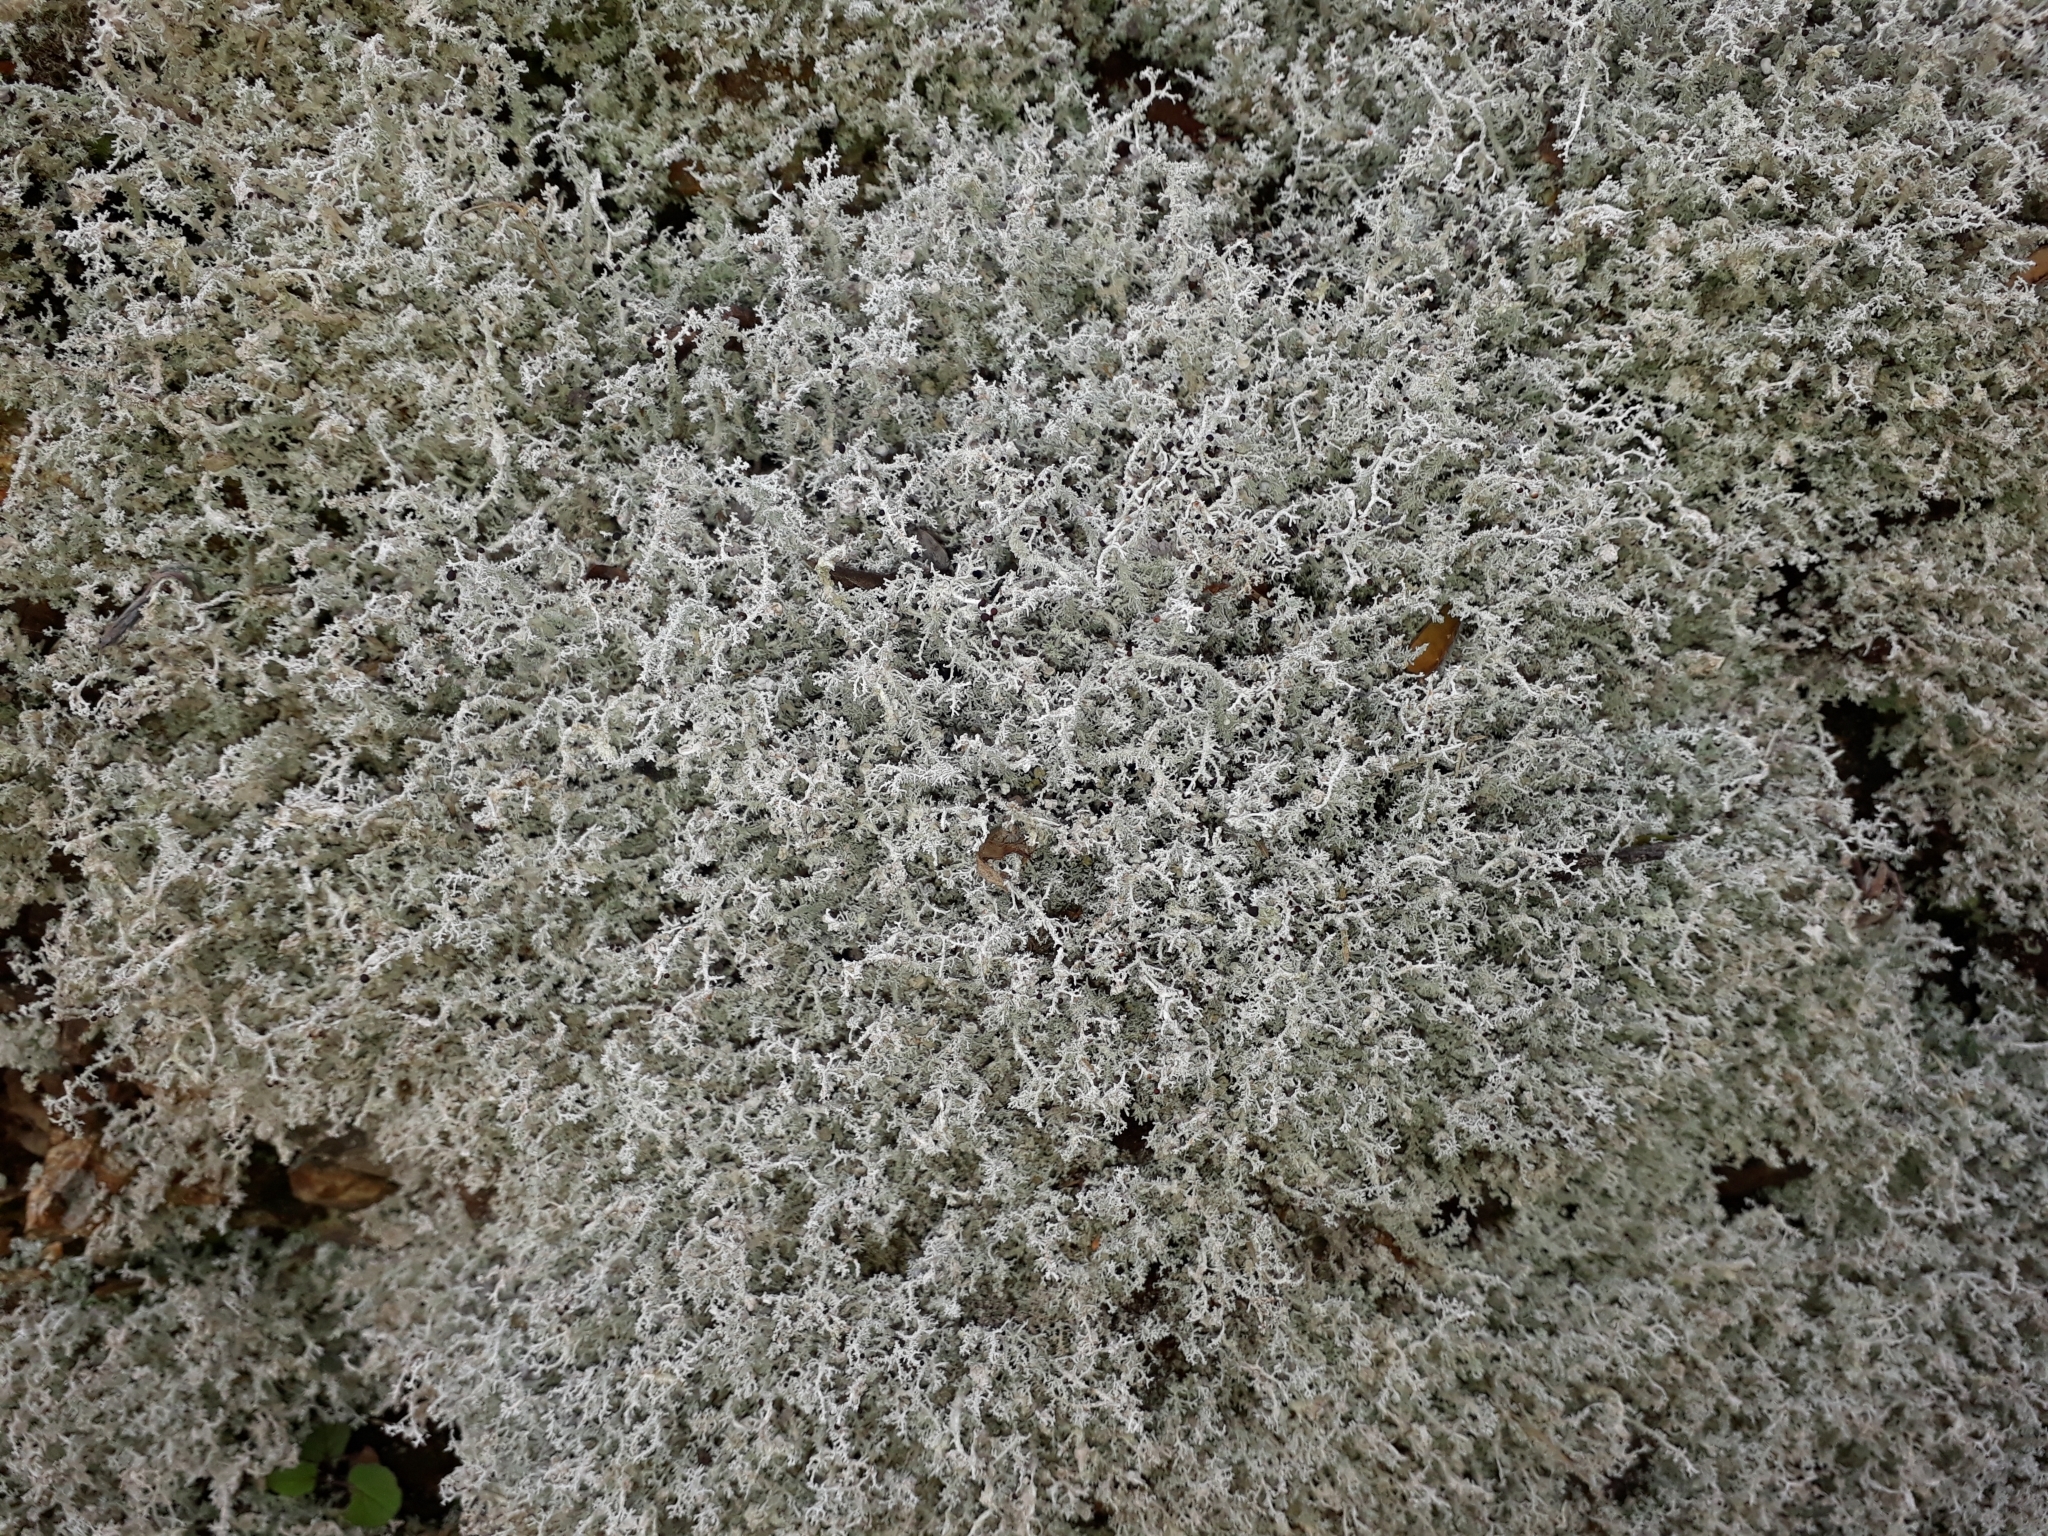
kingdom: Fungi
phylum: Ascomycota
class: Lecanoromycetes
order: Lecanorales
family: Stereocaulaceae
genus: Stereocaulon
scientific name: Stereocaulon ramulosum
